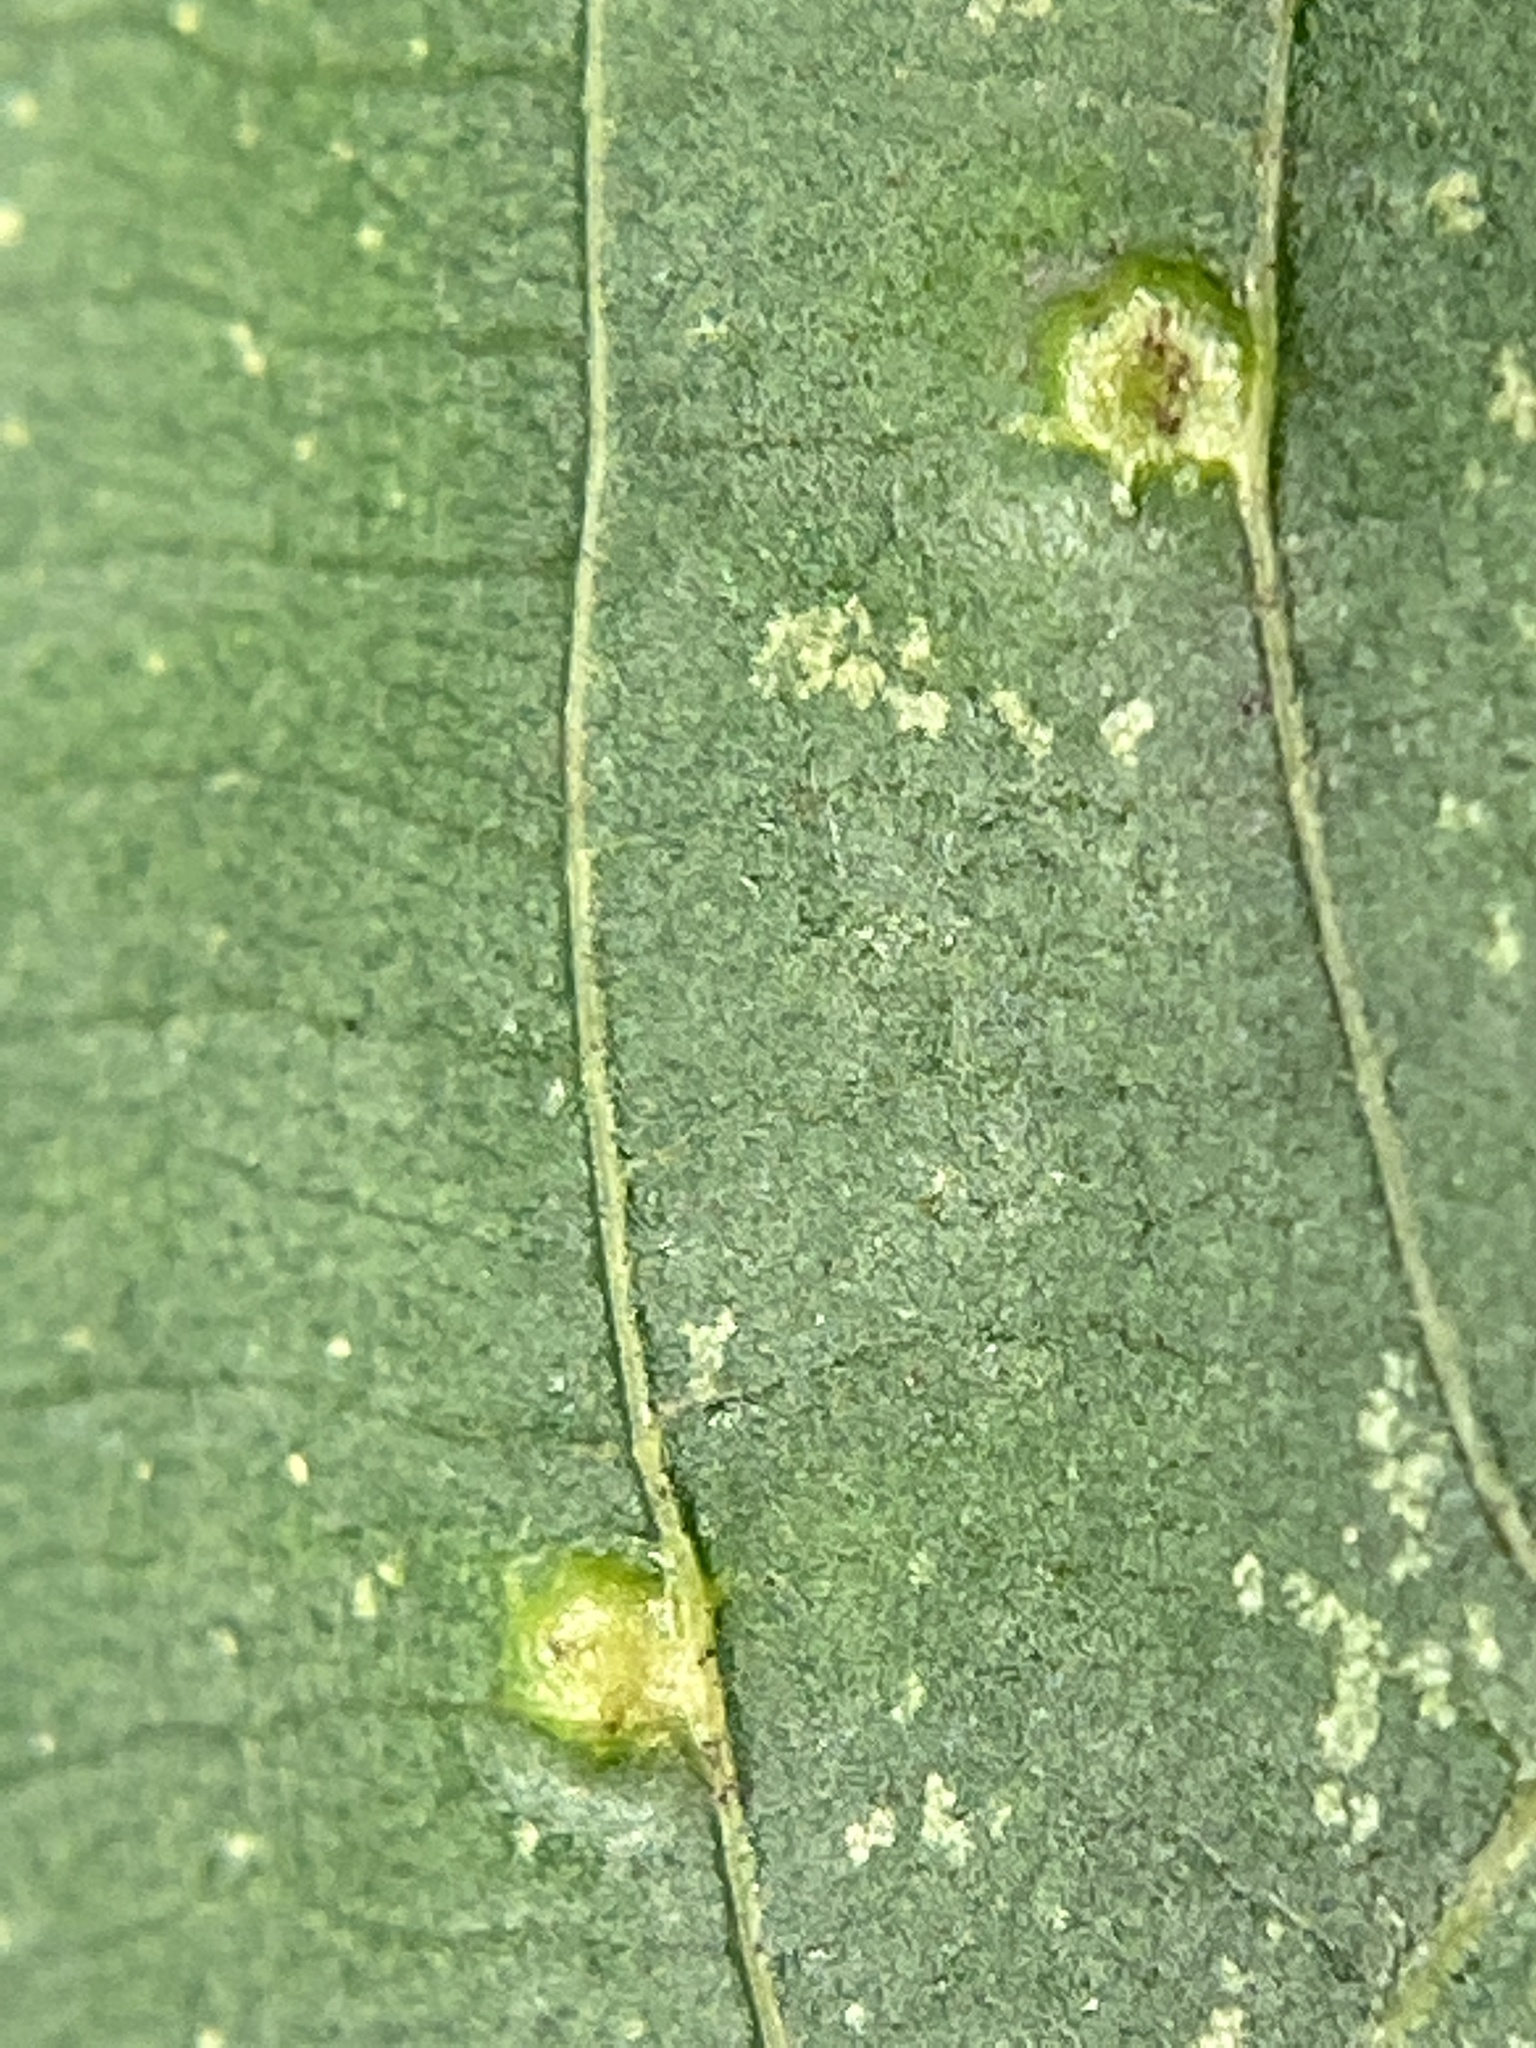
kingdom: Animalia
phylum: Arthropoda
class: Insecta
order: Diptera
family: Cecidomyiidae
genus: Caryomyia
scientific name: Caryomyia sanguinolenta
